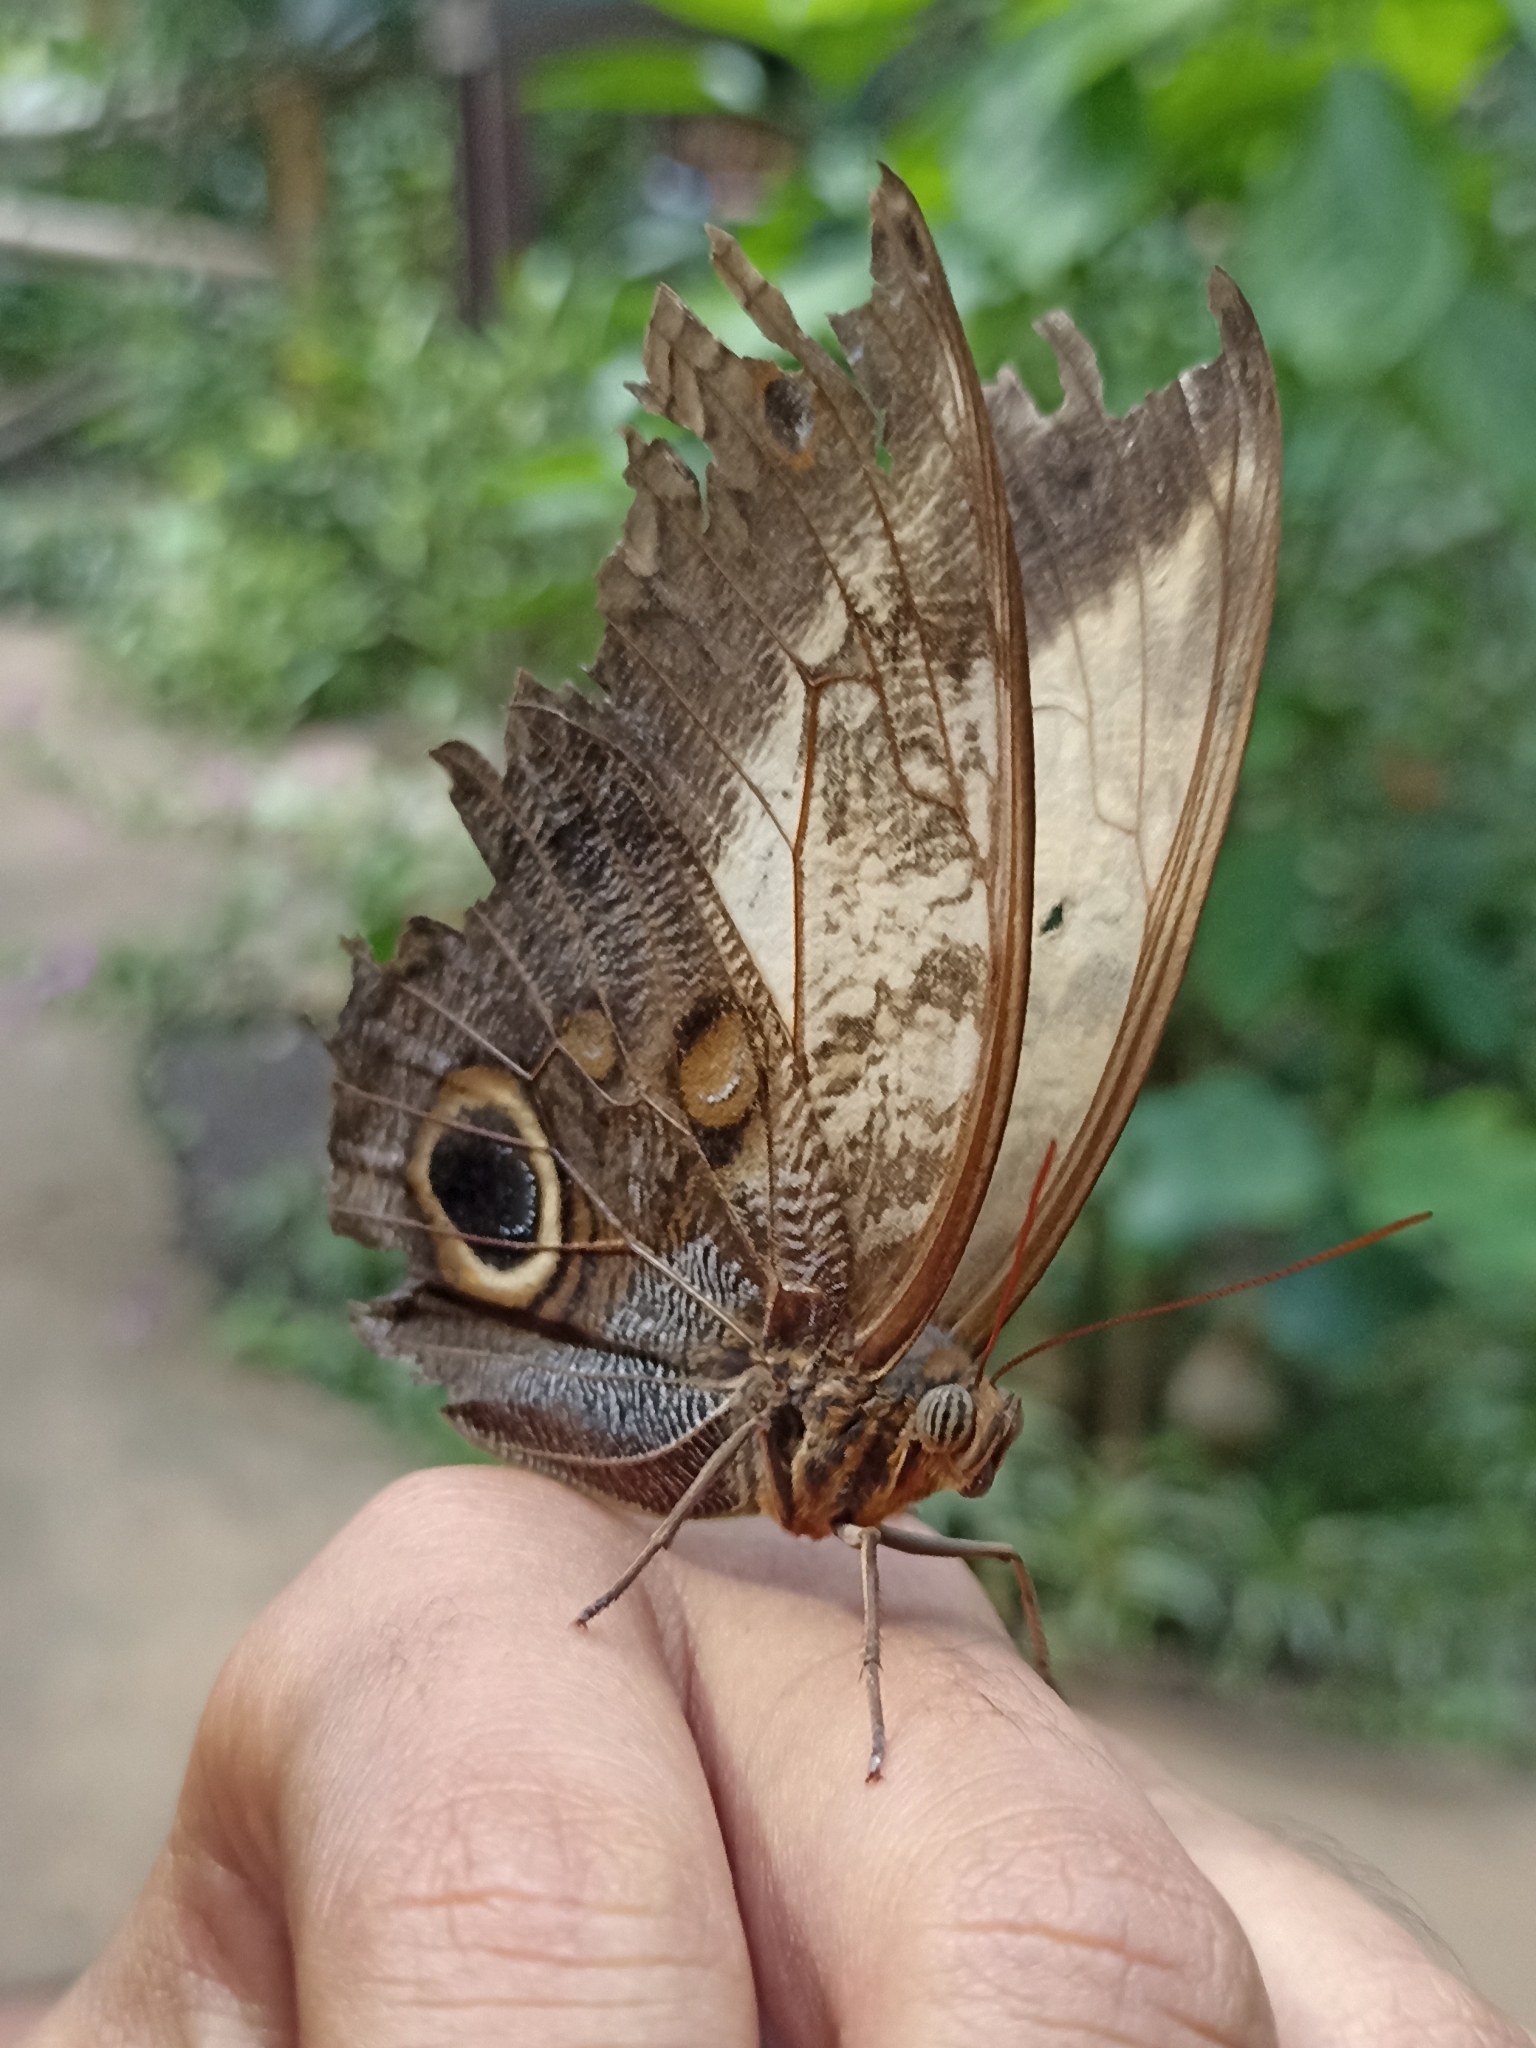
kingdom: Animalia
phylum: Arthropoda
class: Insecta
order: Lepidoptera
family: Nymphalidae
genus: Caligo
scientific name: Caligo telamonius
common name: Pale owl-butterfly
